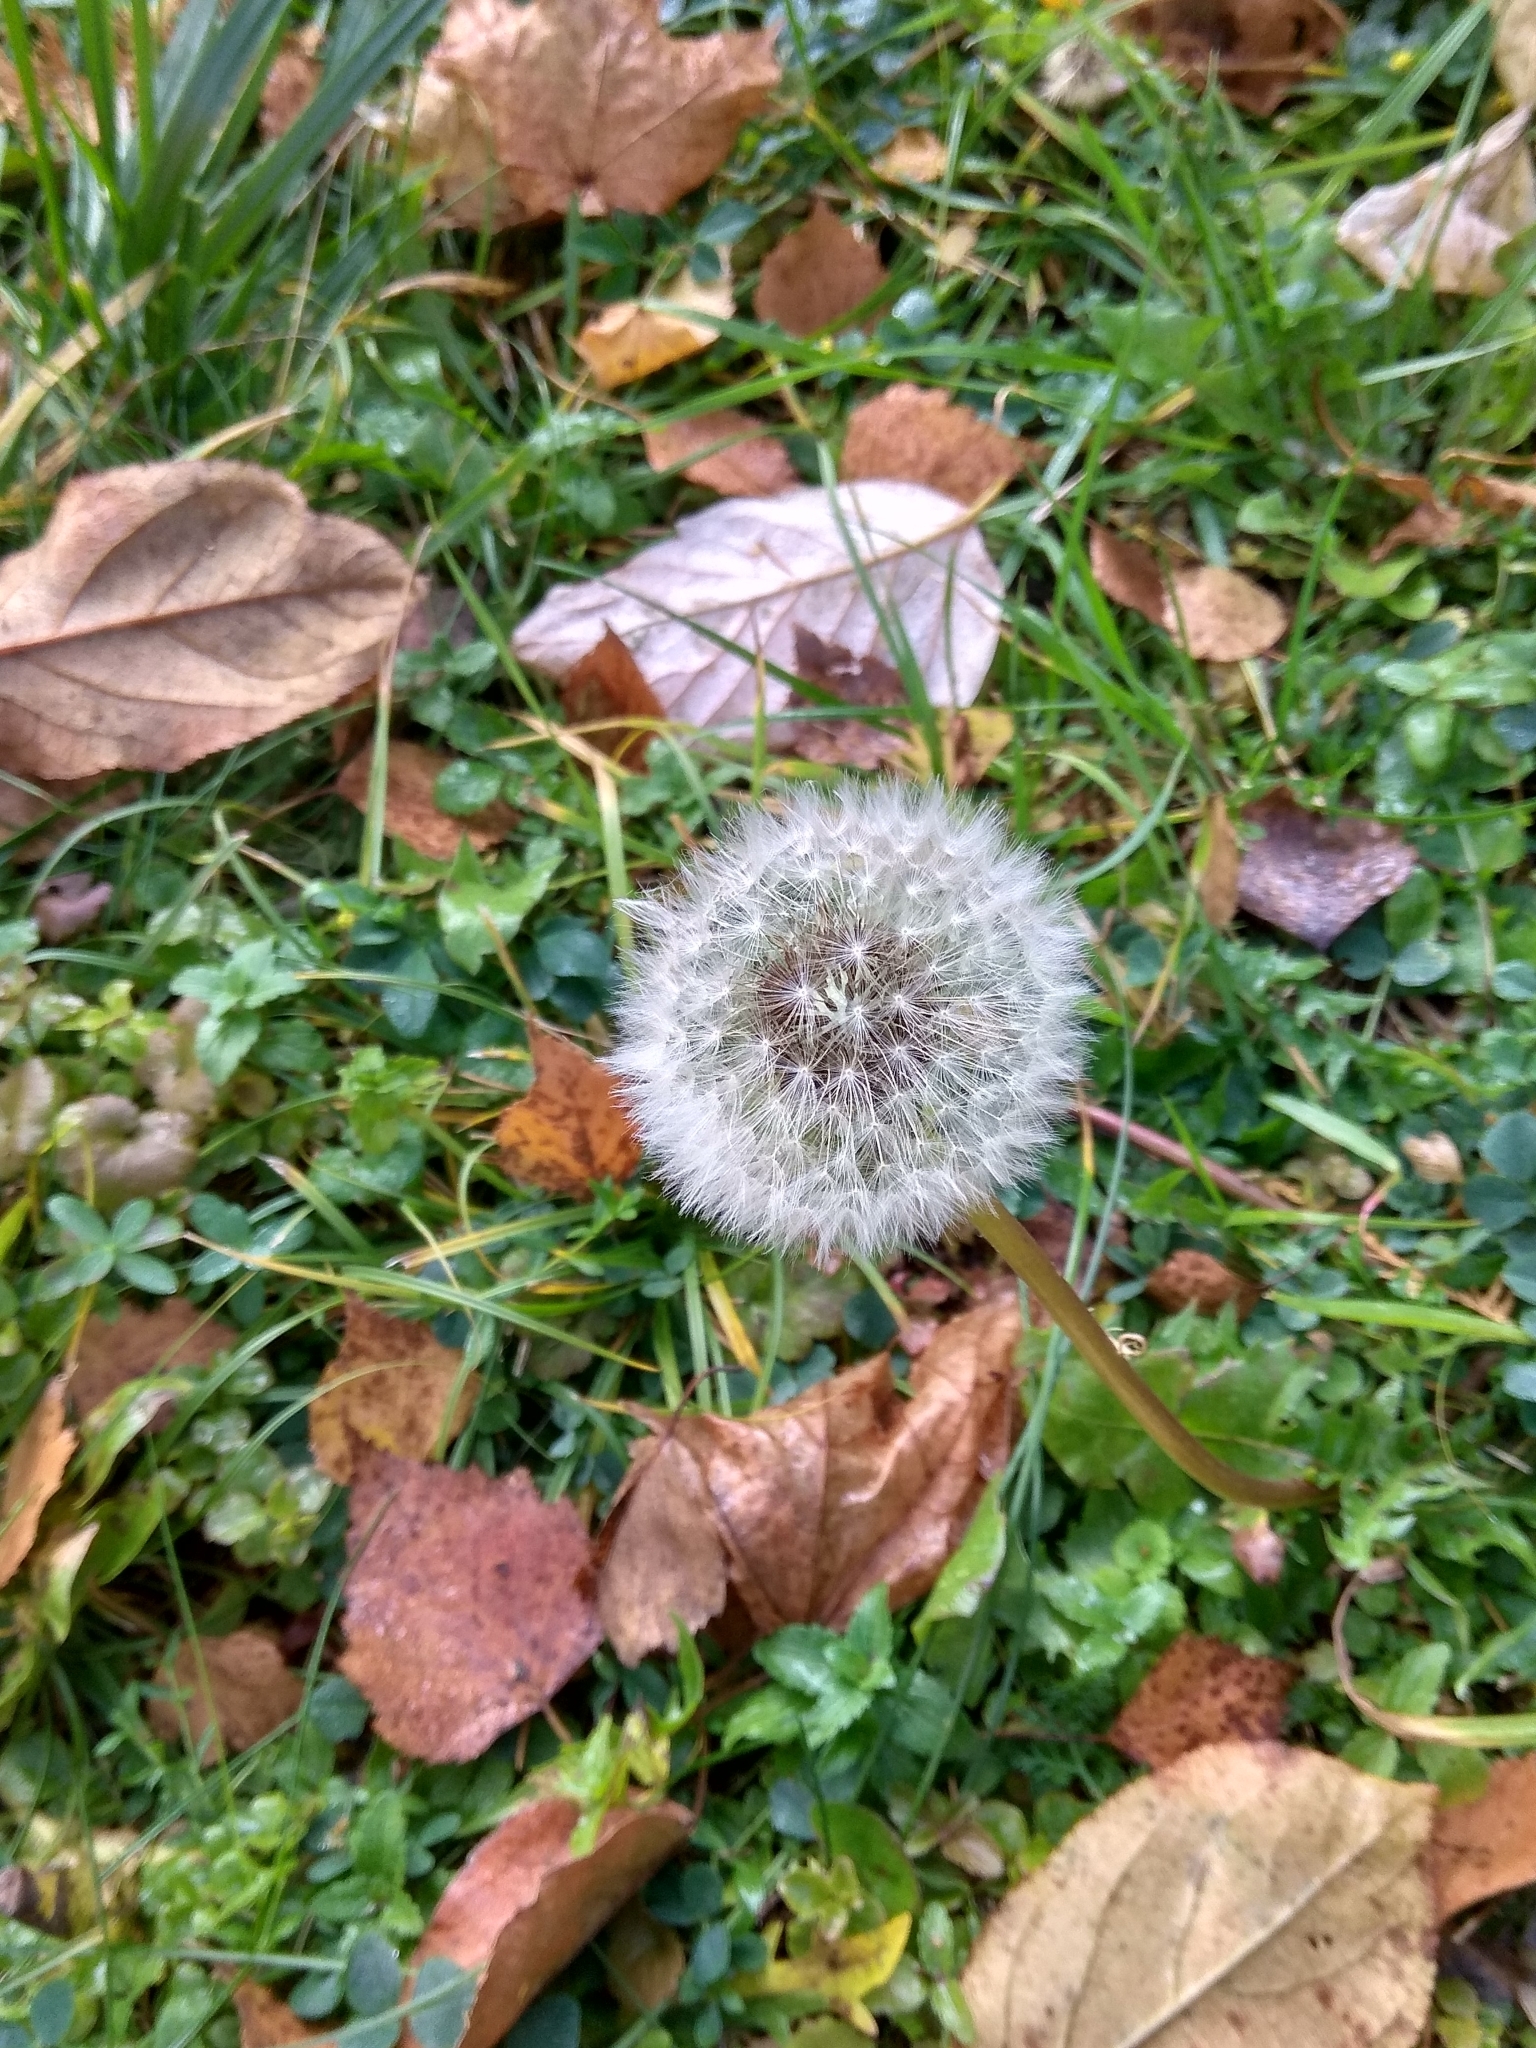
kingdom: Plantae
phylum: Tracheophyta
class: Magnoliopsida
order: Asterales
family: Asteraceae
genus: Taraxacum
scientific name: Taraxacum officinale
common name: Common dandelion
